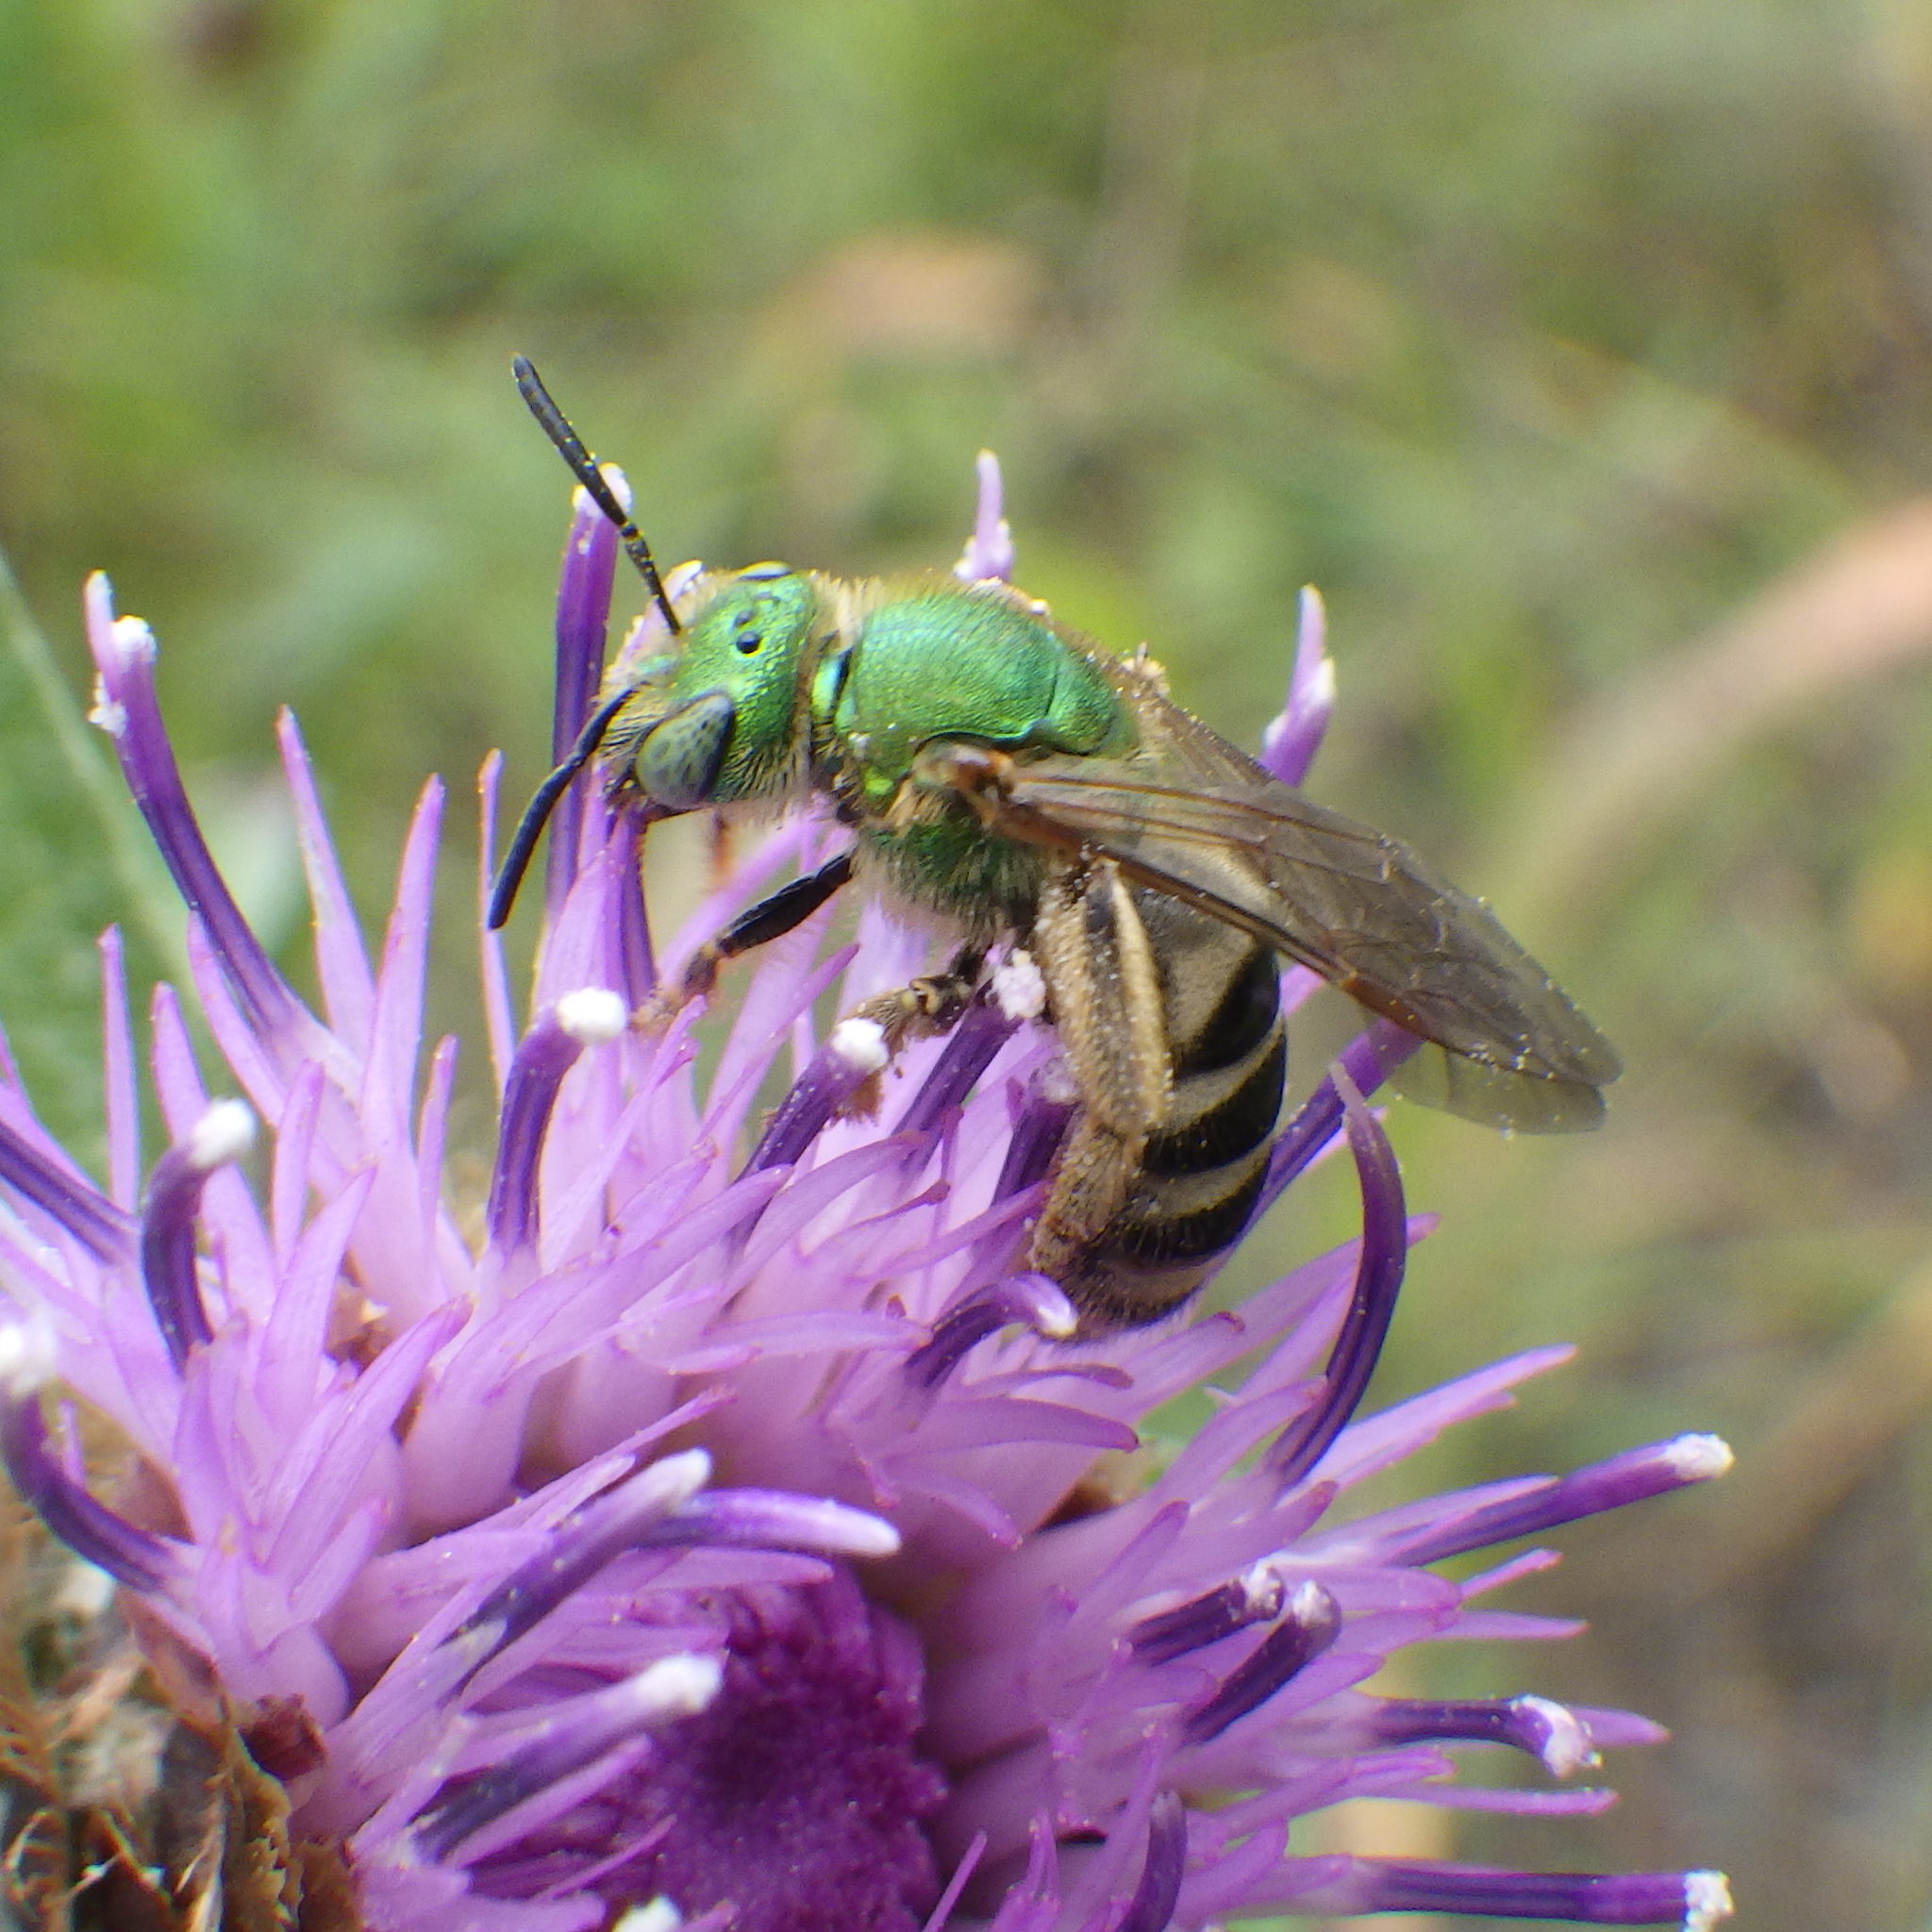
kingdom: Animalia
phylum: Arthropoda
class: Insecta
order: Hymenoptera
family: Halictidae
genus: Agapostemon
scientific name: Agapostemon virescens
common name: Bicolored striped sweat bee
